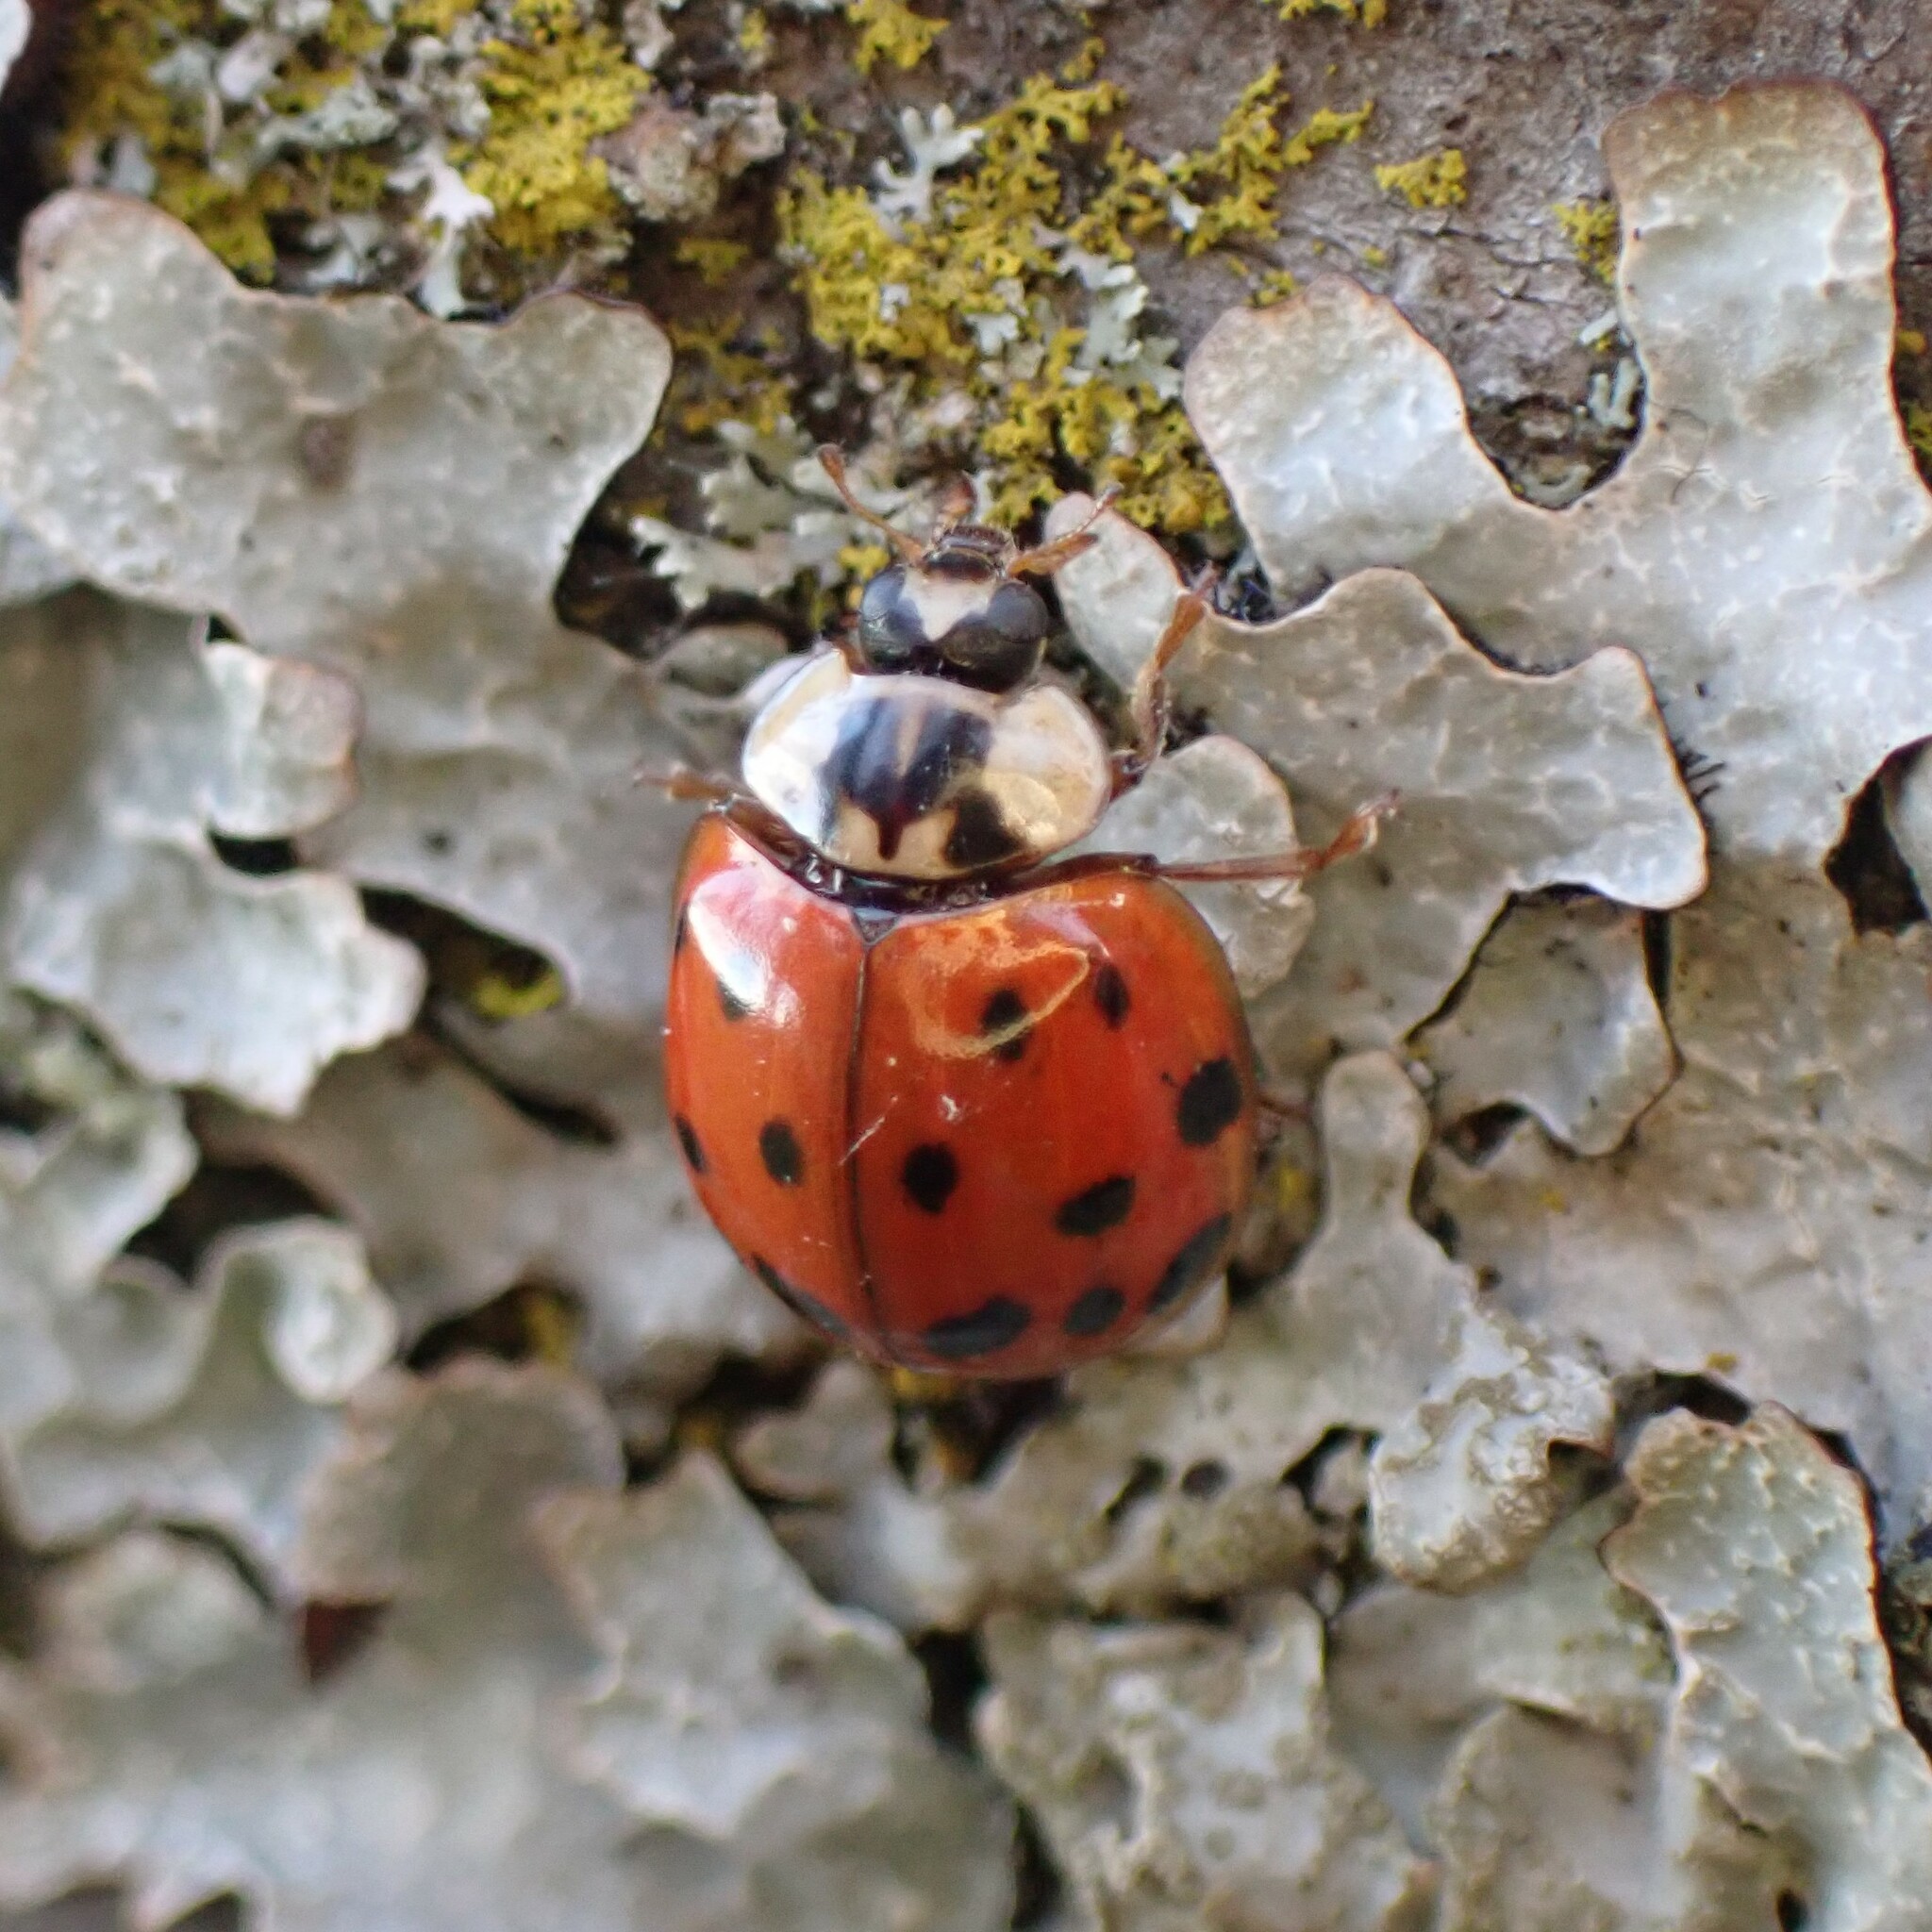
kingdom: Animalia
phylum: Arthropoda
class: Insecta
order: Coleoptera
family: Coccinellidae
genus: Harmonia
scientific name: Harmonia axyridis
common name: Harlequin ladybird
